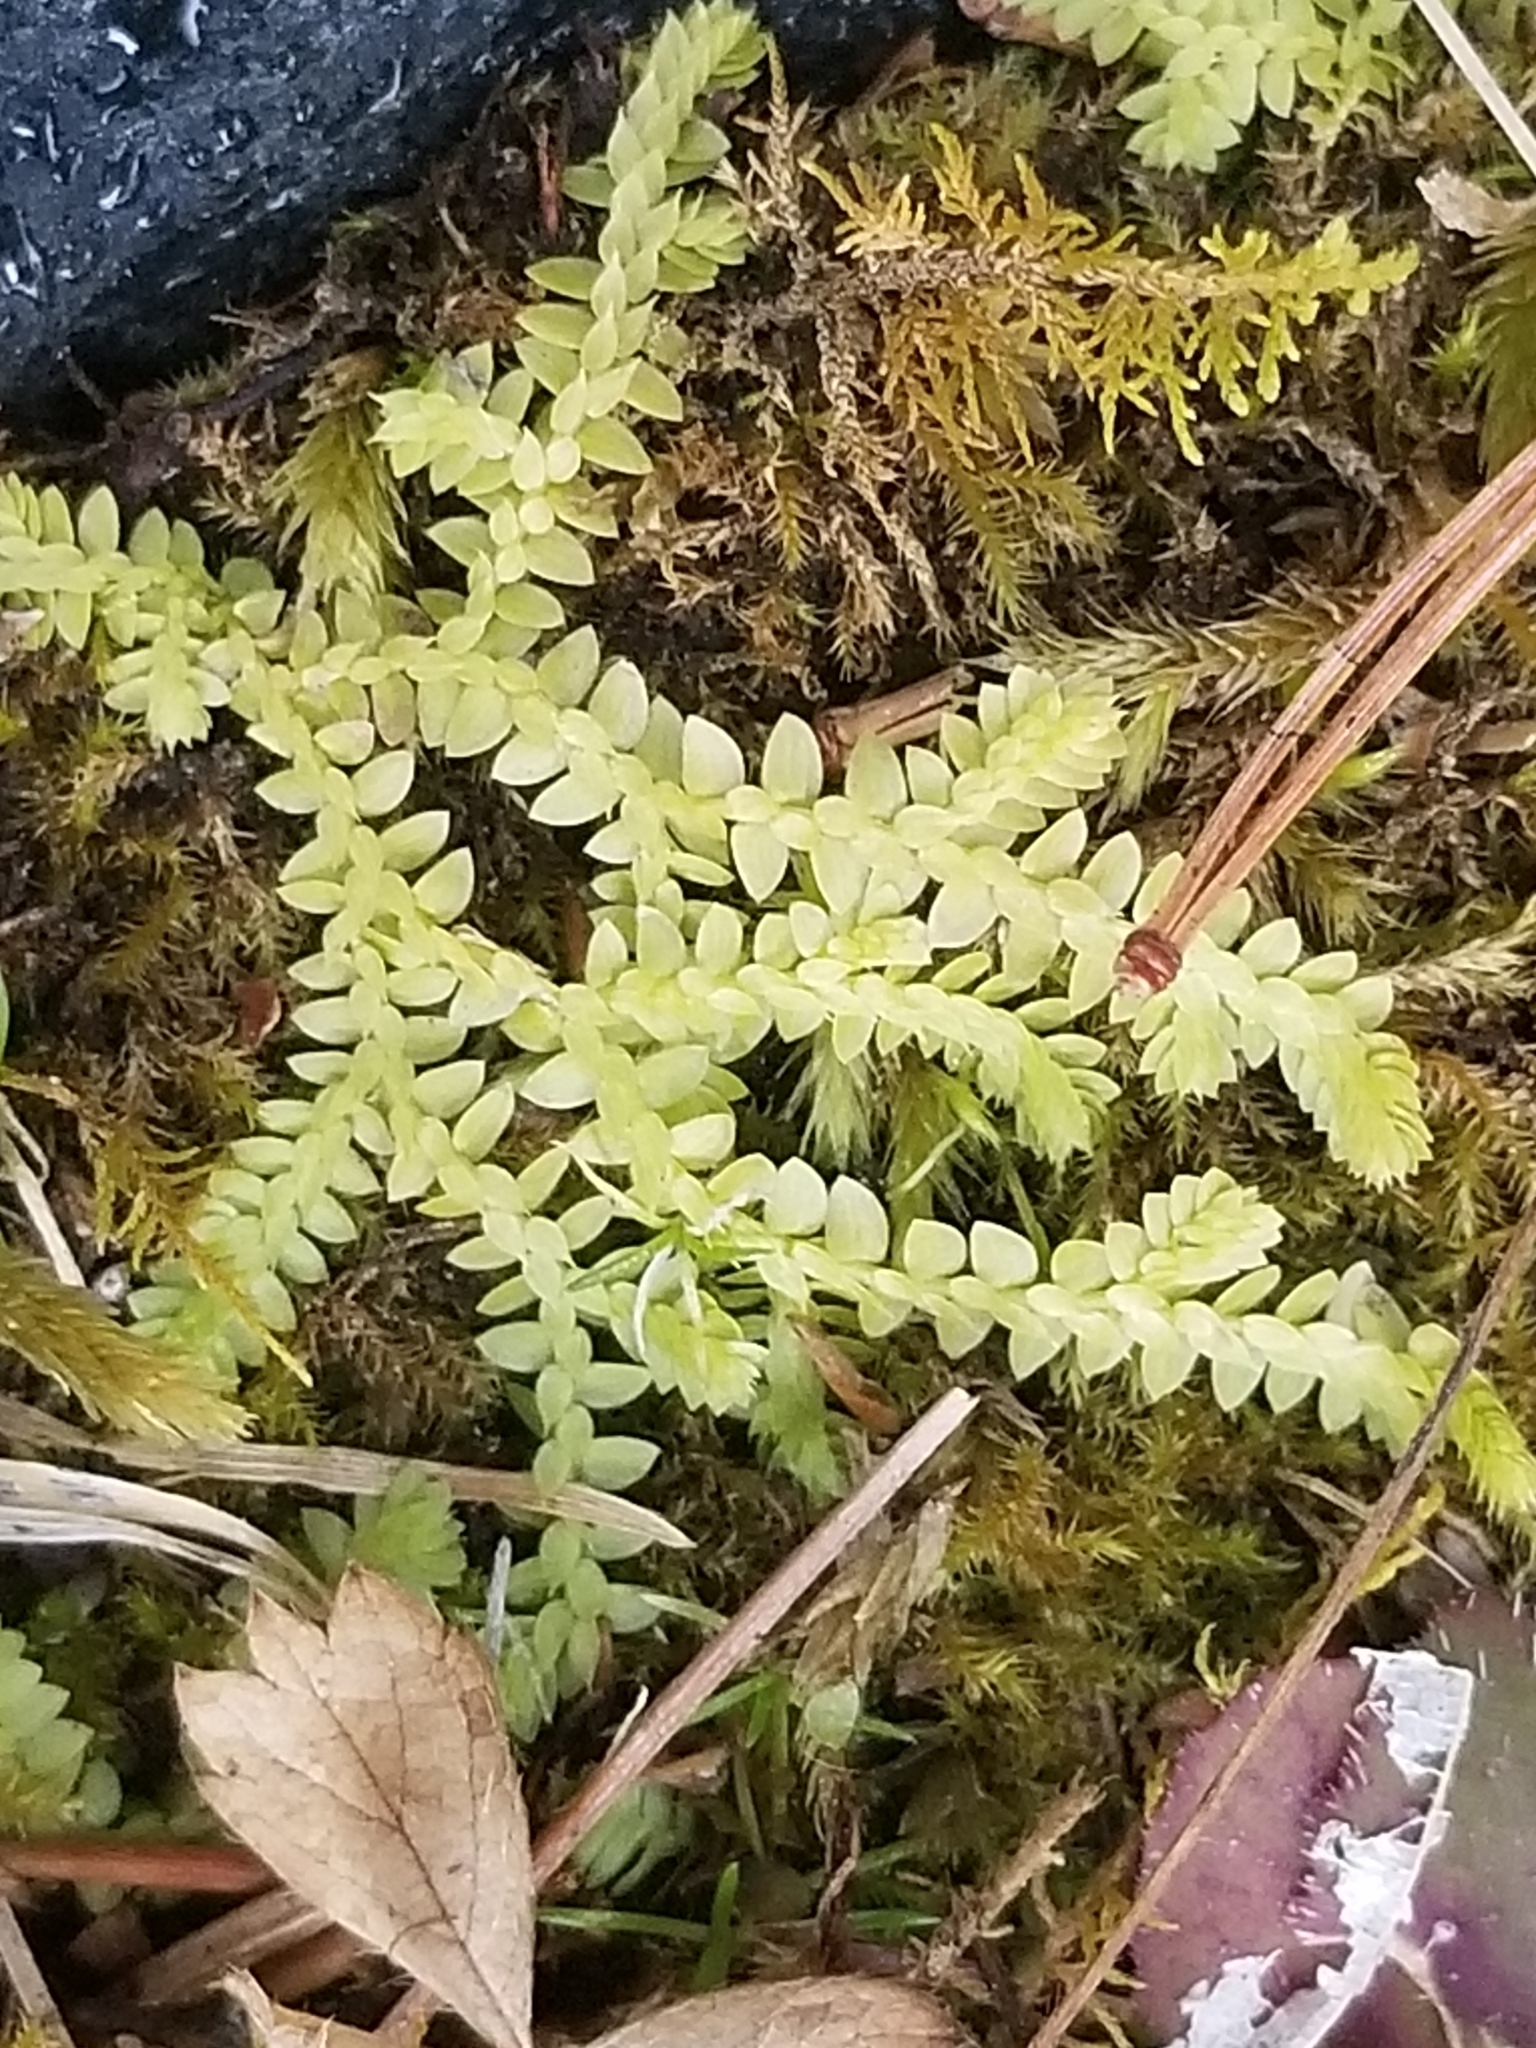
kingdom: Plantae
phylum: Tracheophyta
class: Lycopodiopsida
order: Selaginellales
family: Selaginellaceae
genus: Selaginella
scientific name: Selaginella apoda
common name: Creeping spikemoss
